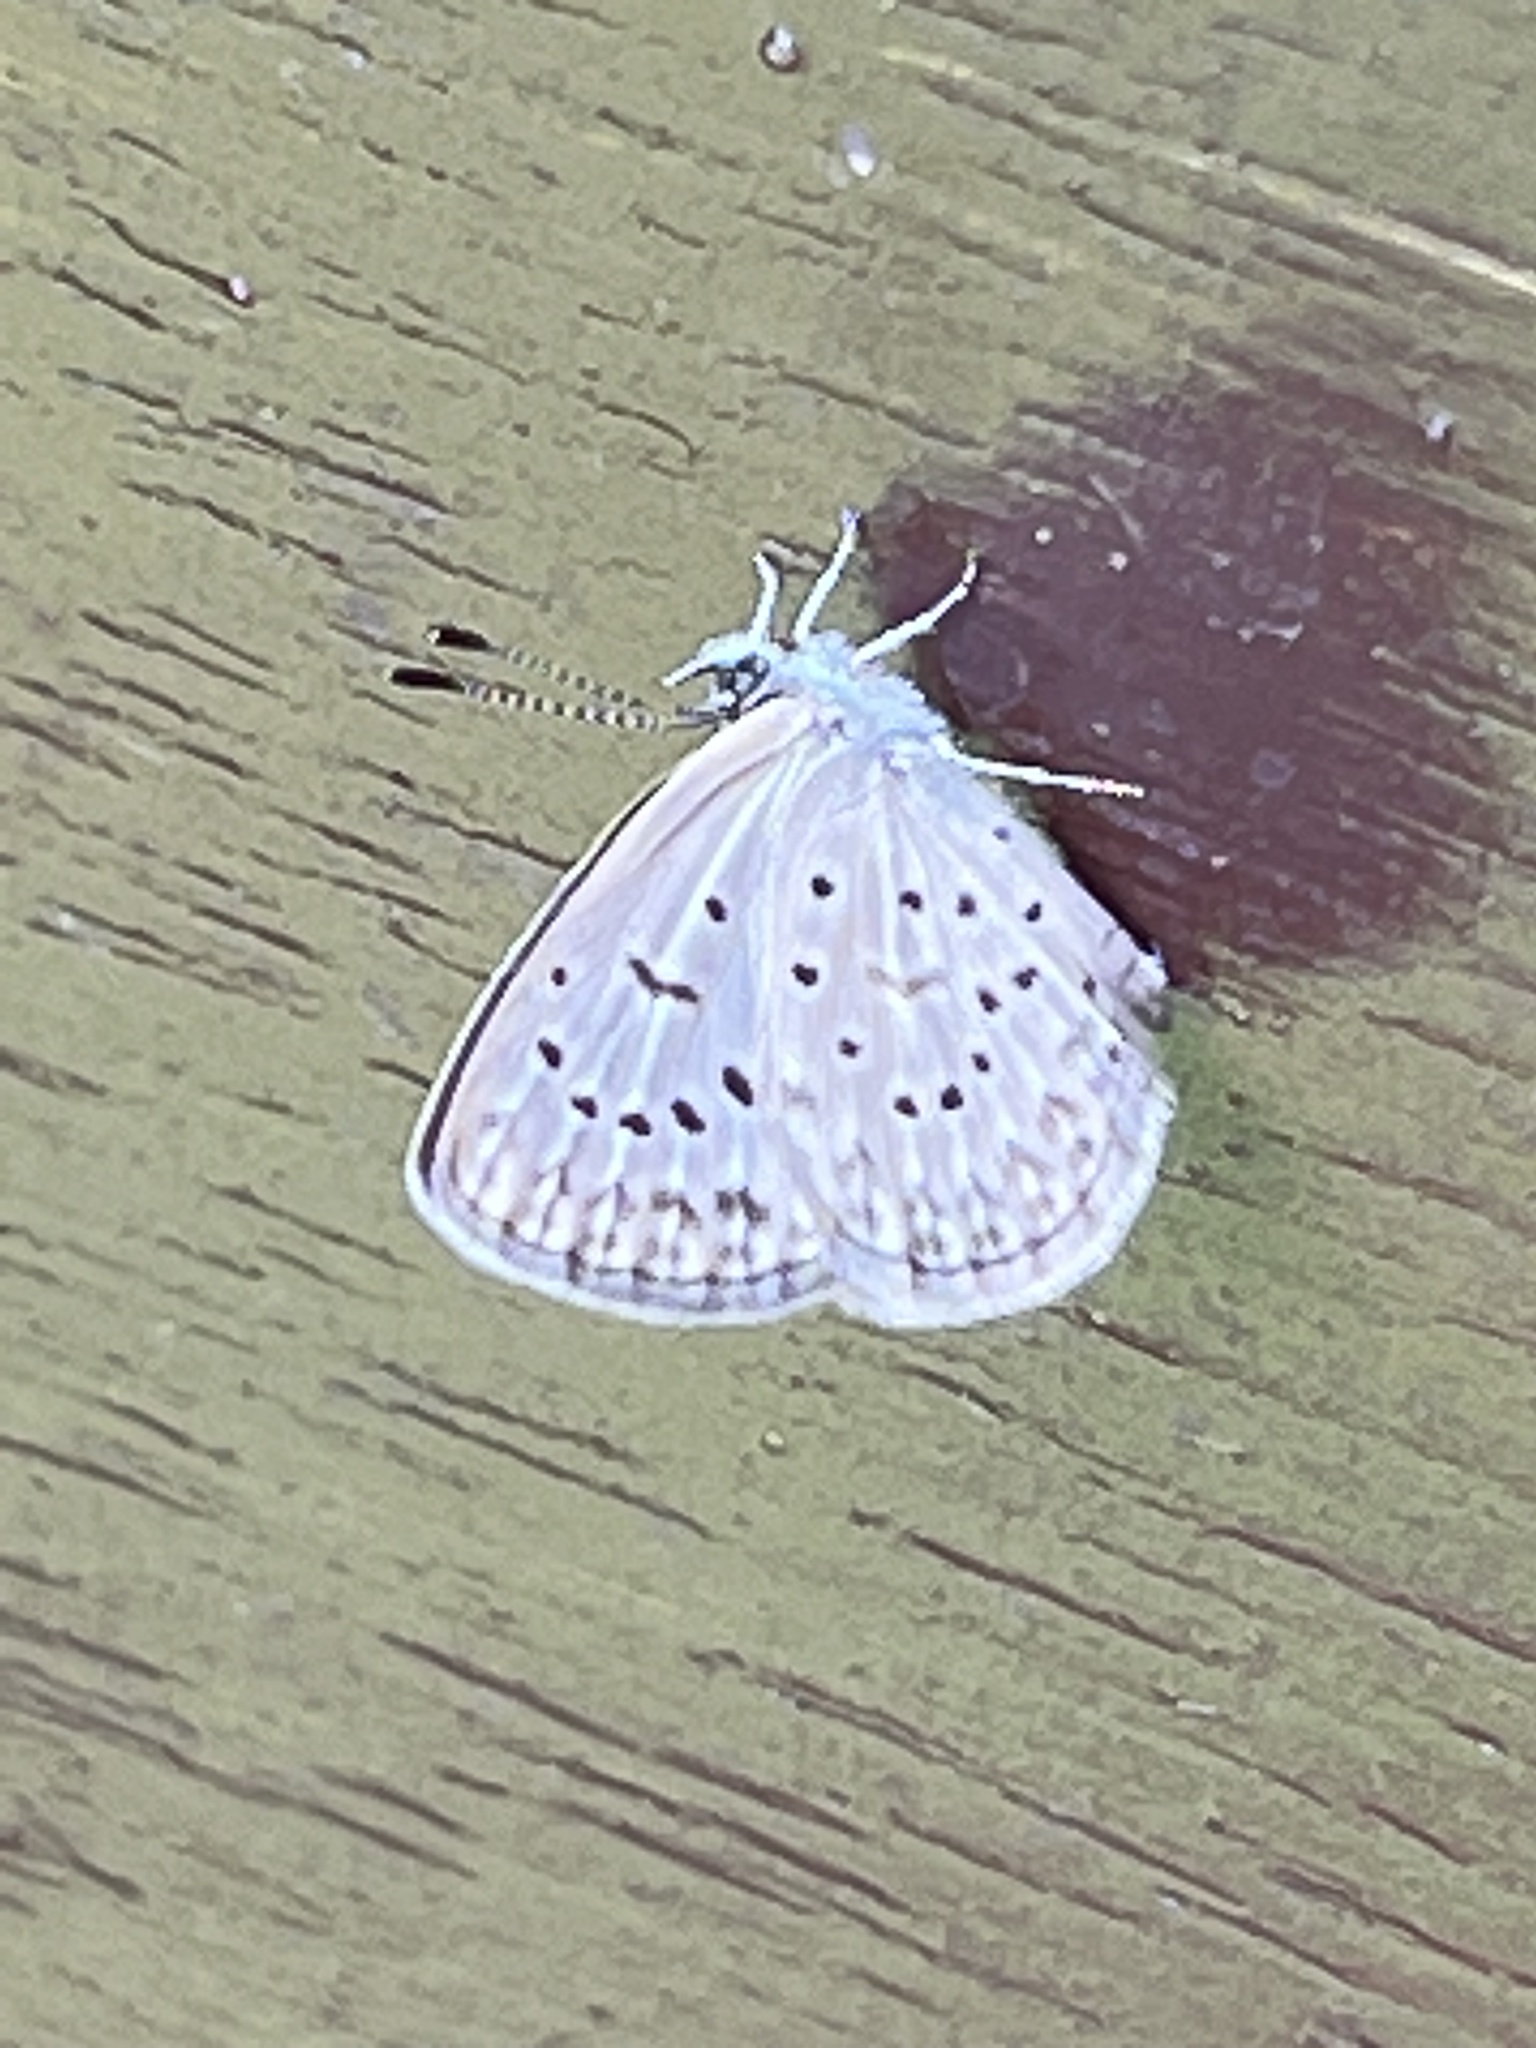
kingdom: Animalia
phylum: Arthropoda
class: Insecta
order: Lepidoptera
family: Lycaenidae
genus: Zizeeria
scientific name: Zizeeria knysna
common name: African grass blue
